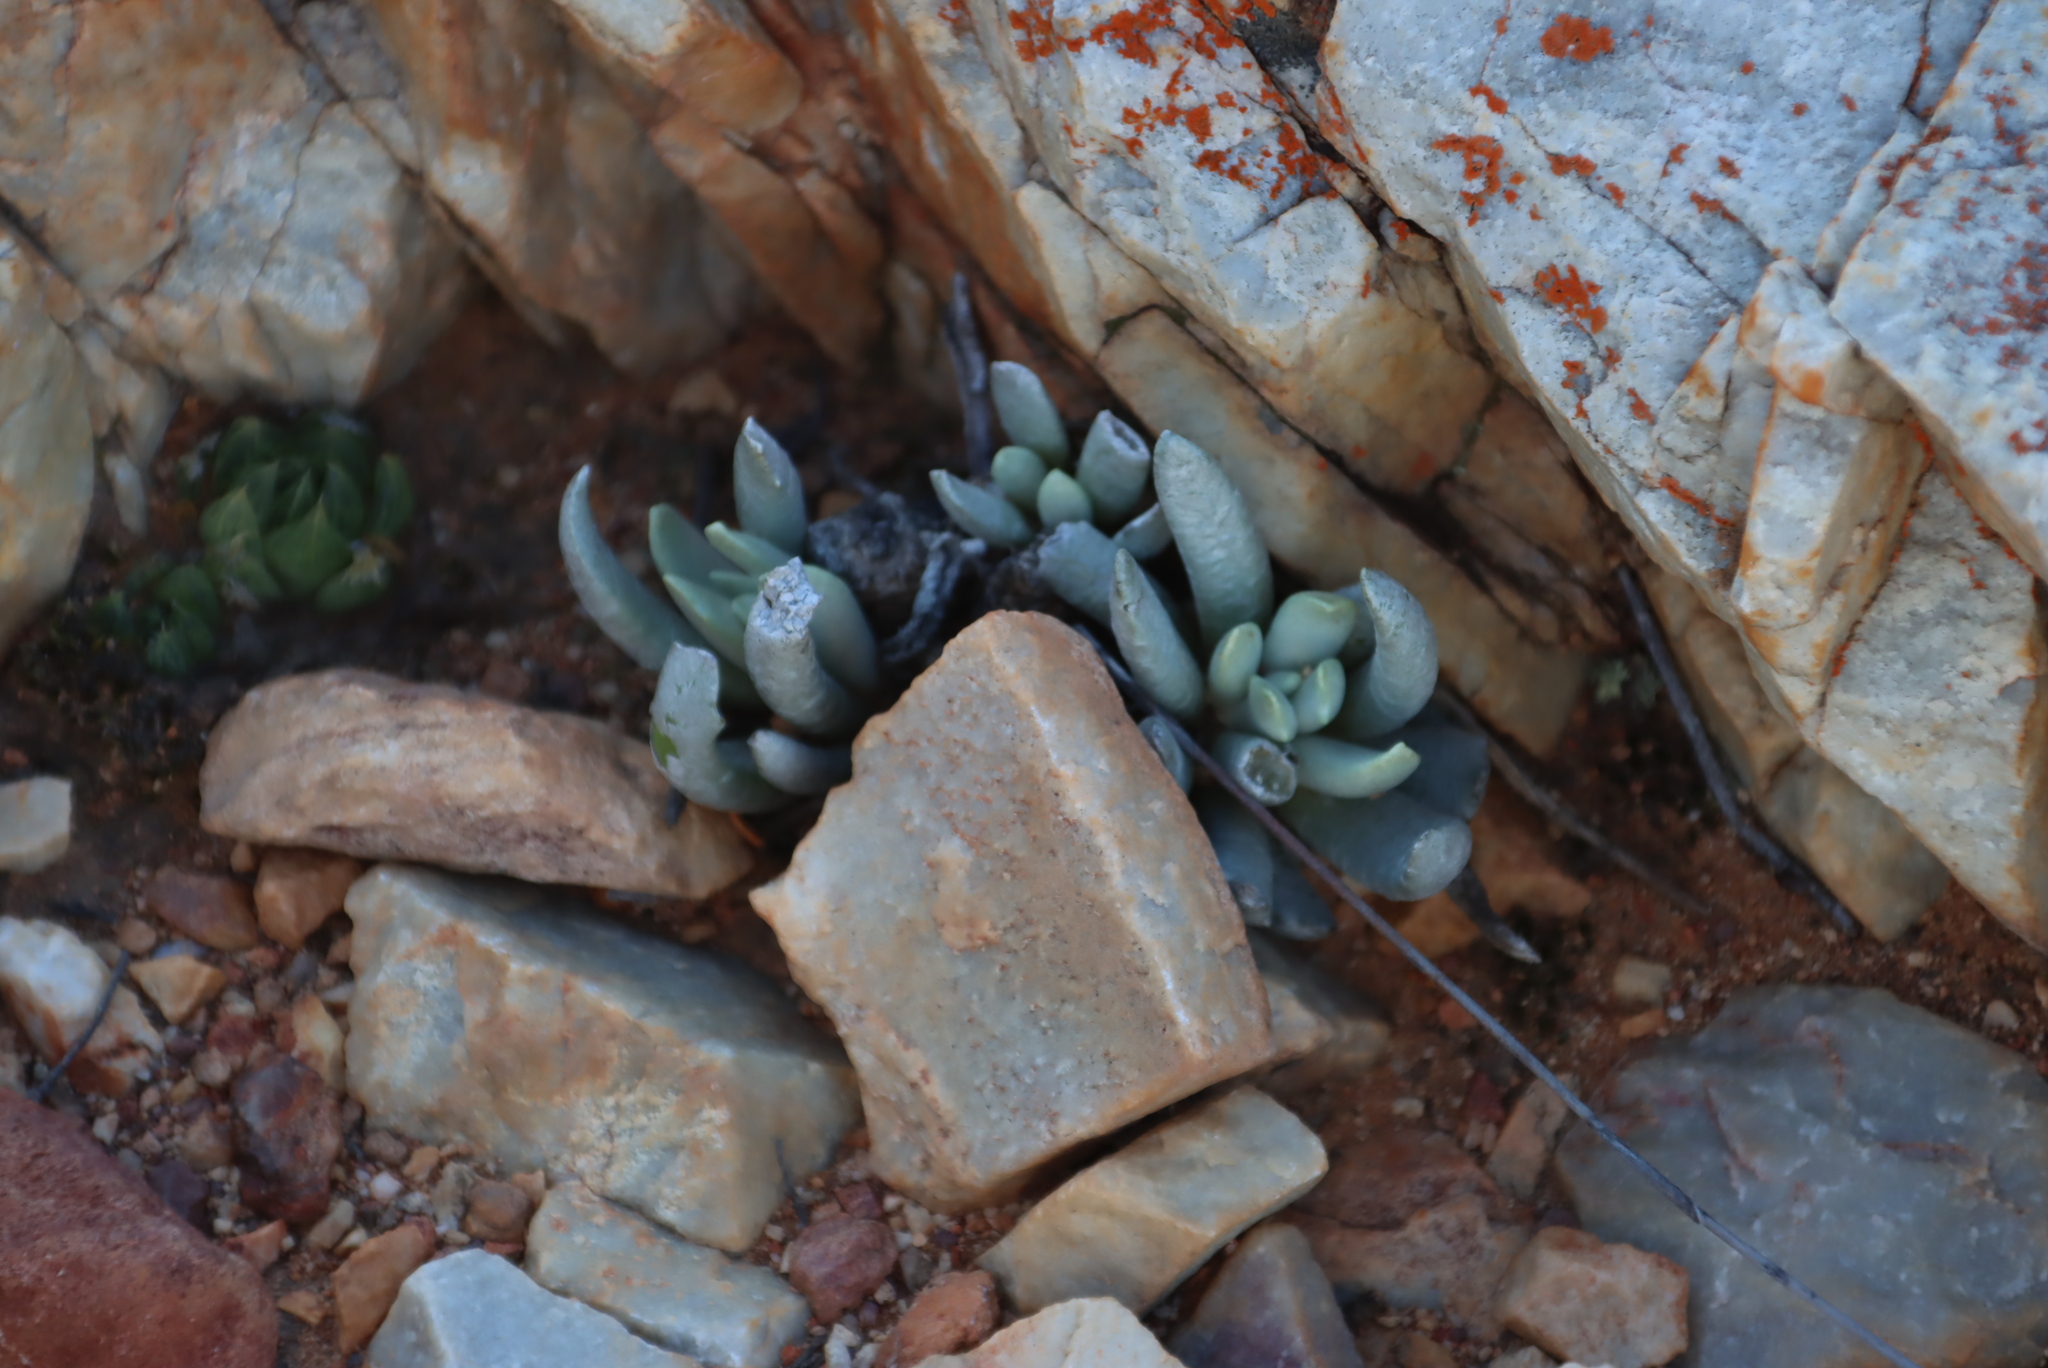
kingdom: Plantae
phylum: Tracheophyta
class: Magnoliopsida
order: Asterales
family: Asteraceae
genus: Caputia
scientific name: Caputia scaposa
